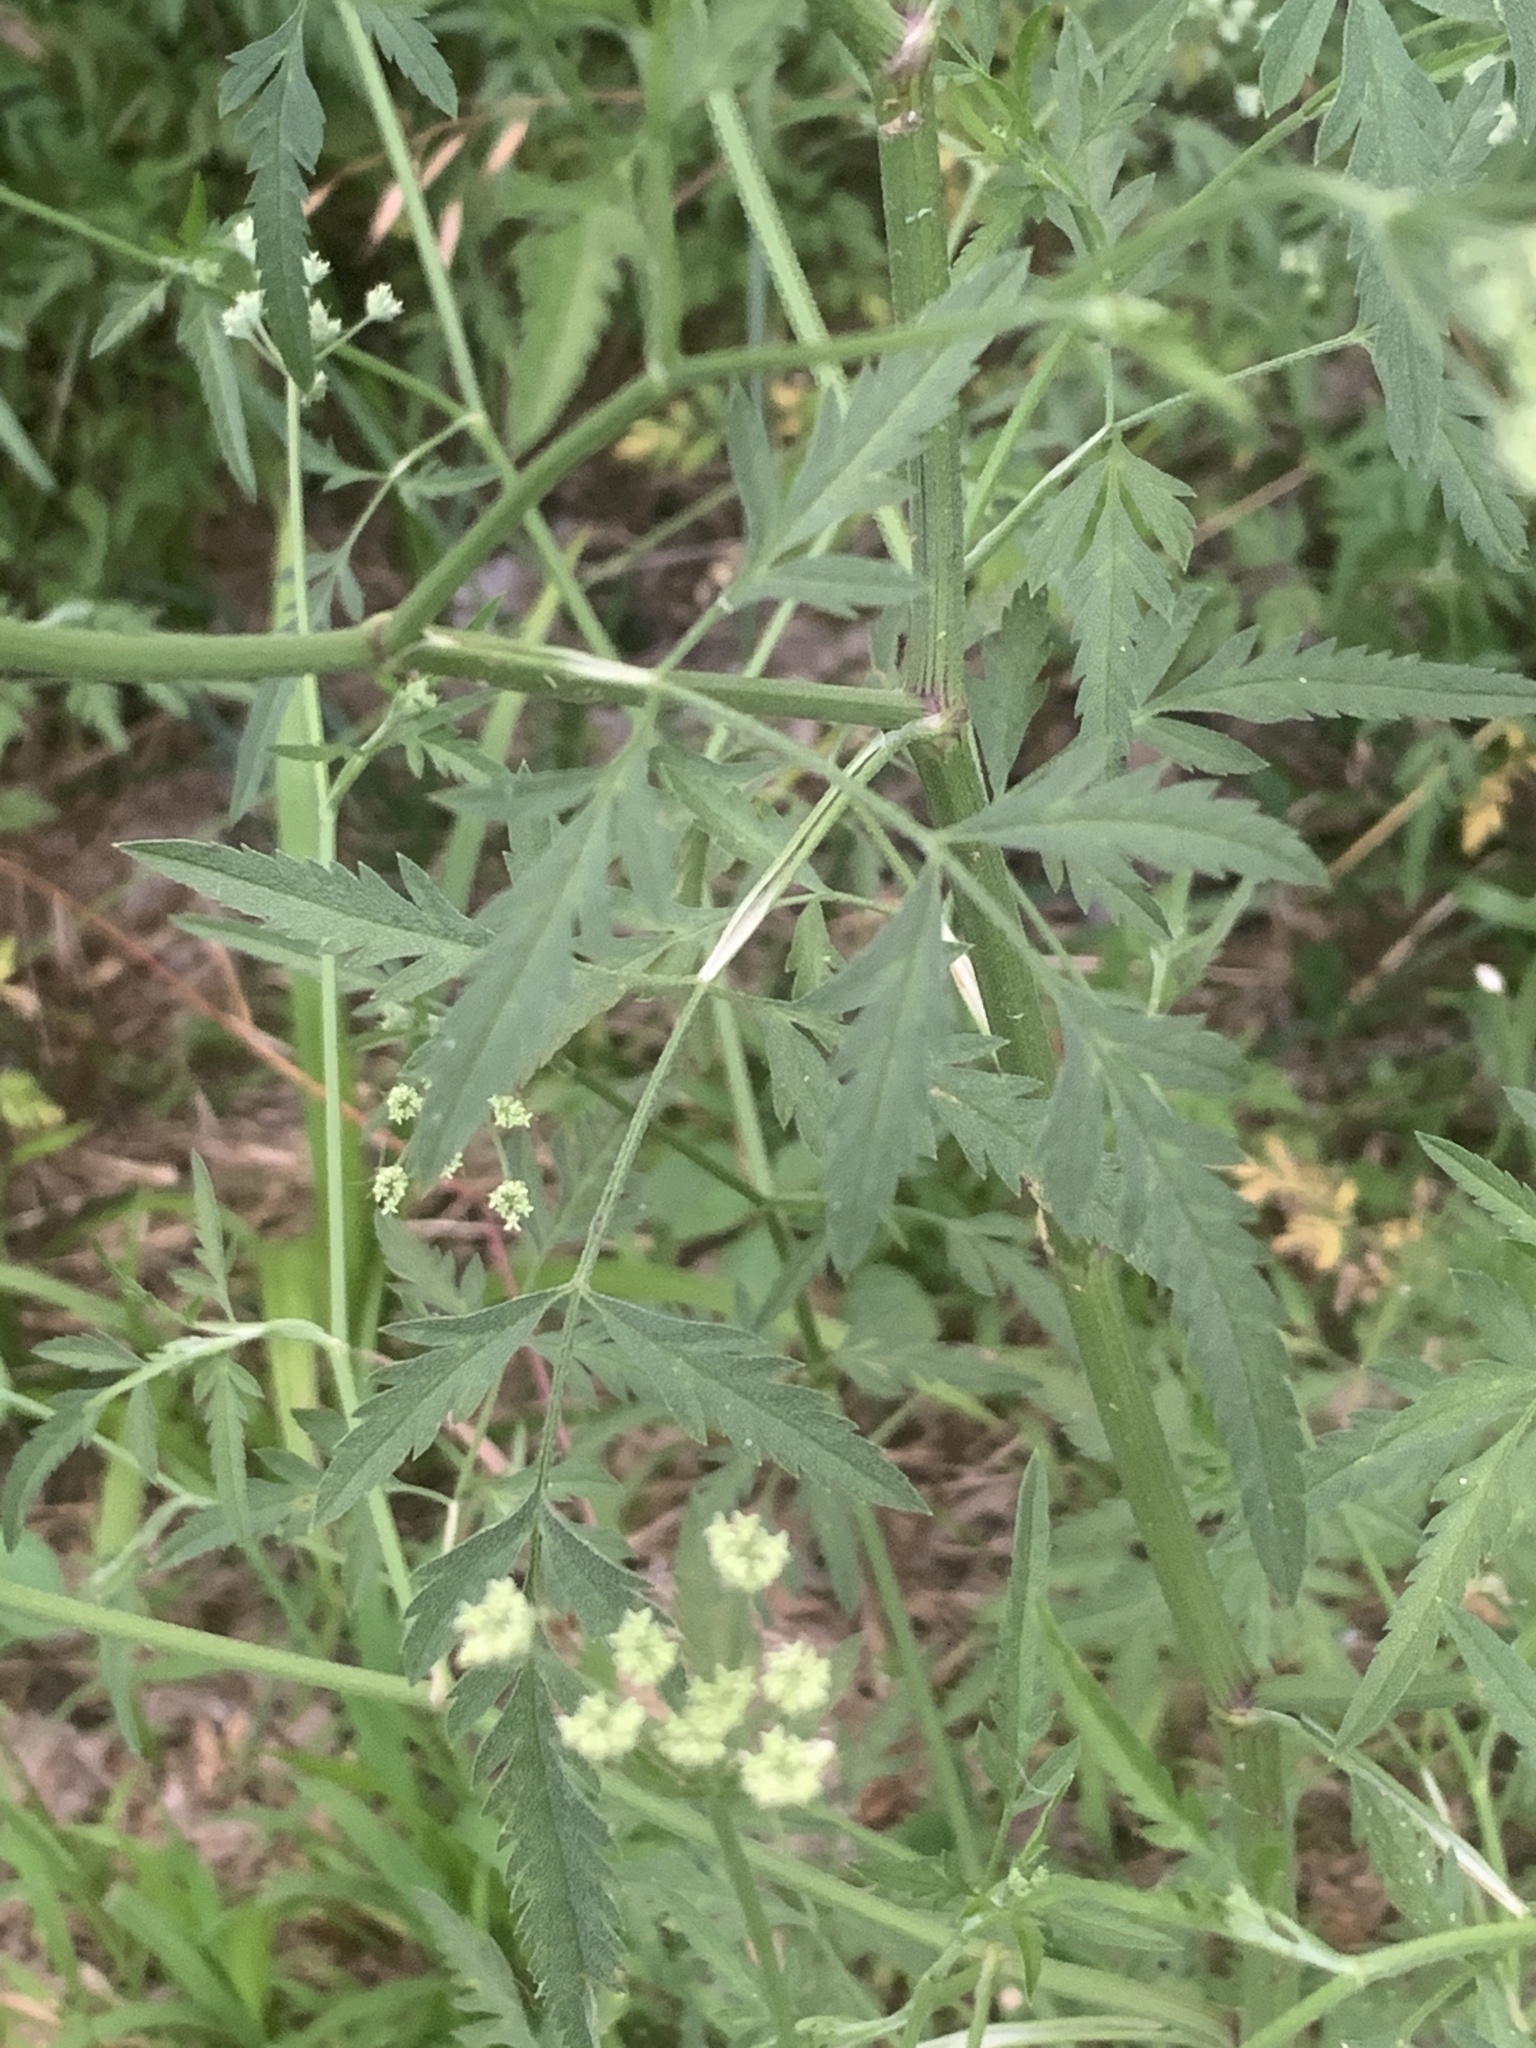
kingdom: Plantae
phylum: Tracheophyta
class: Magnoliopsida
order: Apiales
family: Apiaceae
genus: Torilis
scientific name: Torilis arvensis
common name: Spreading hedge-parsley
